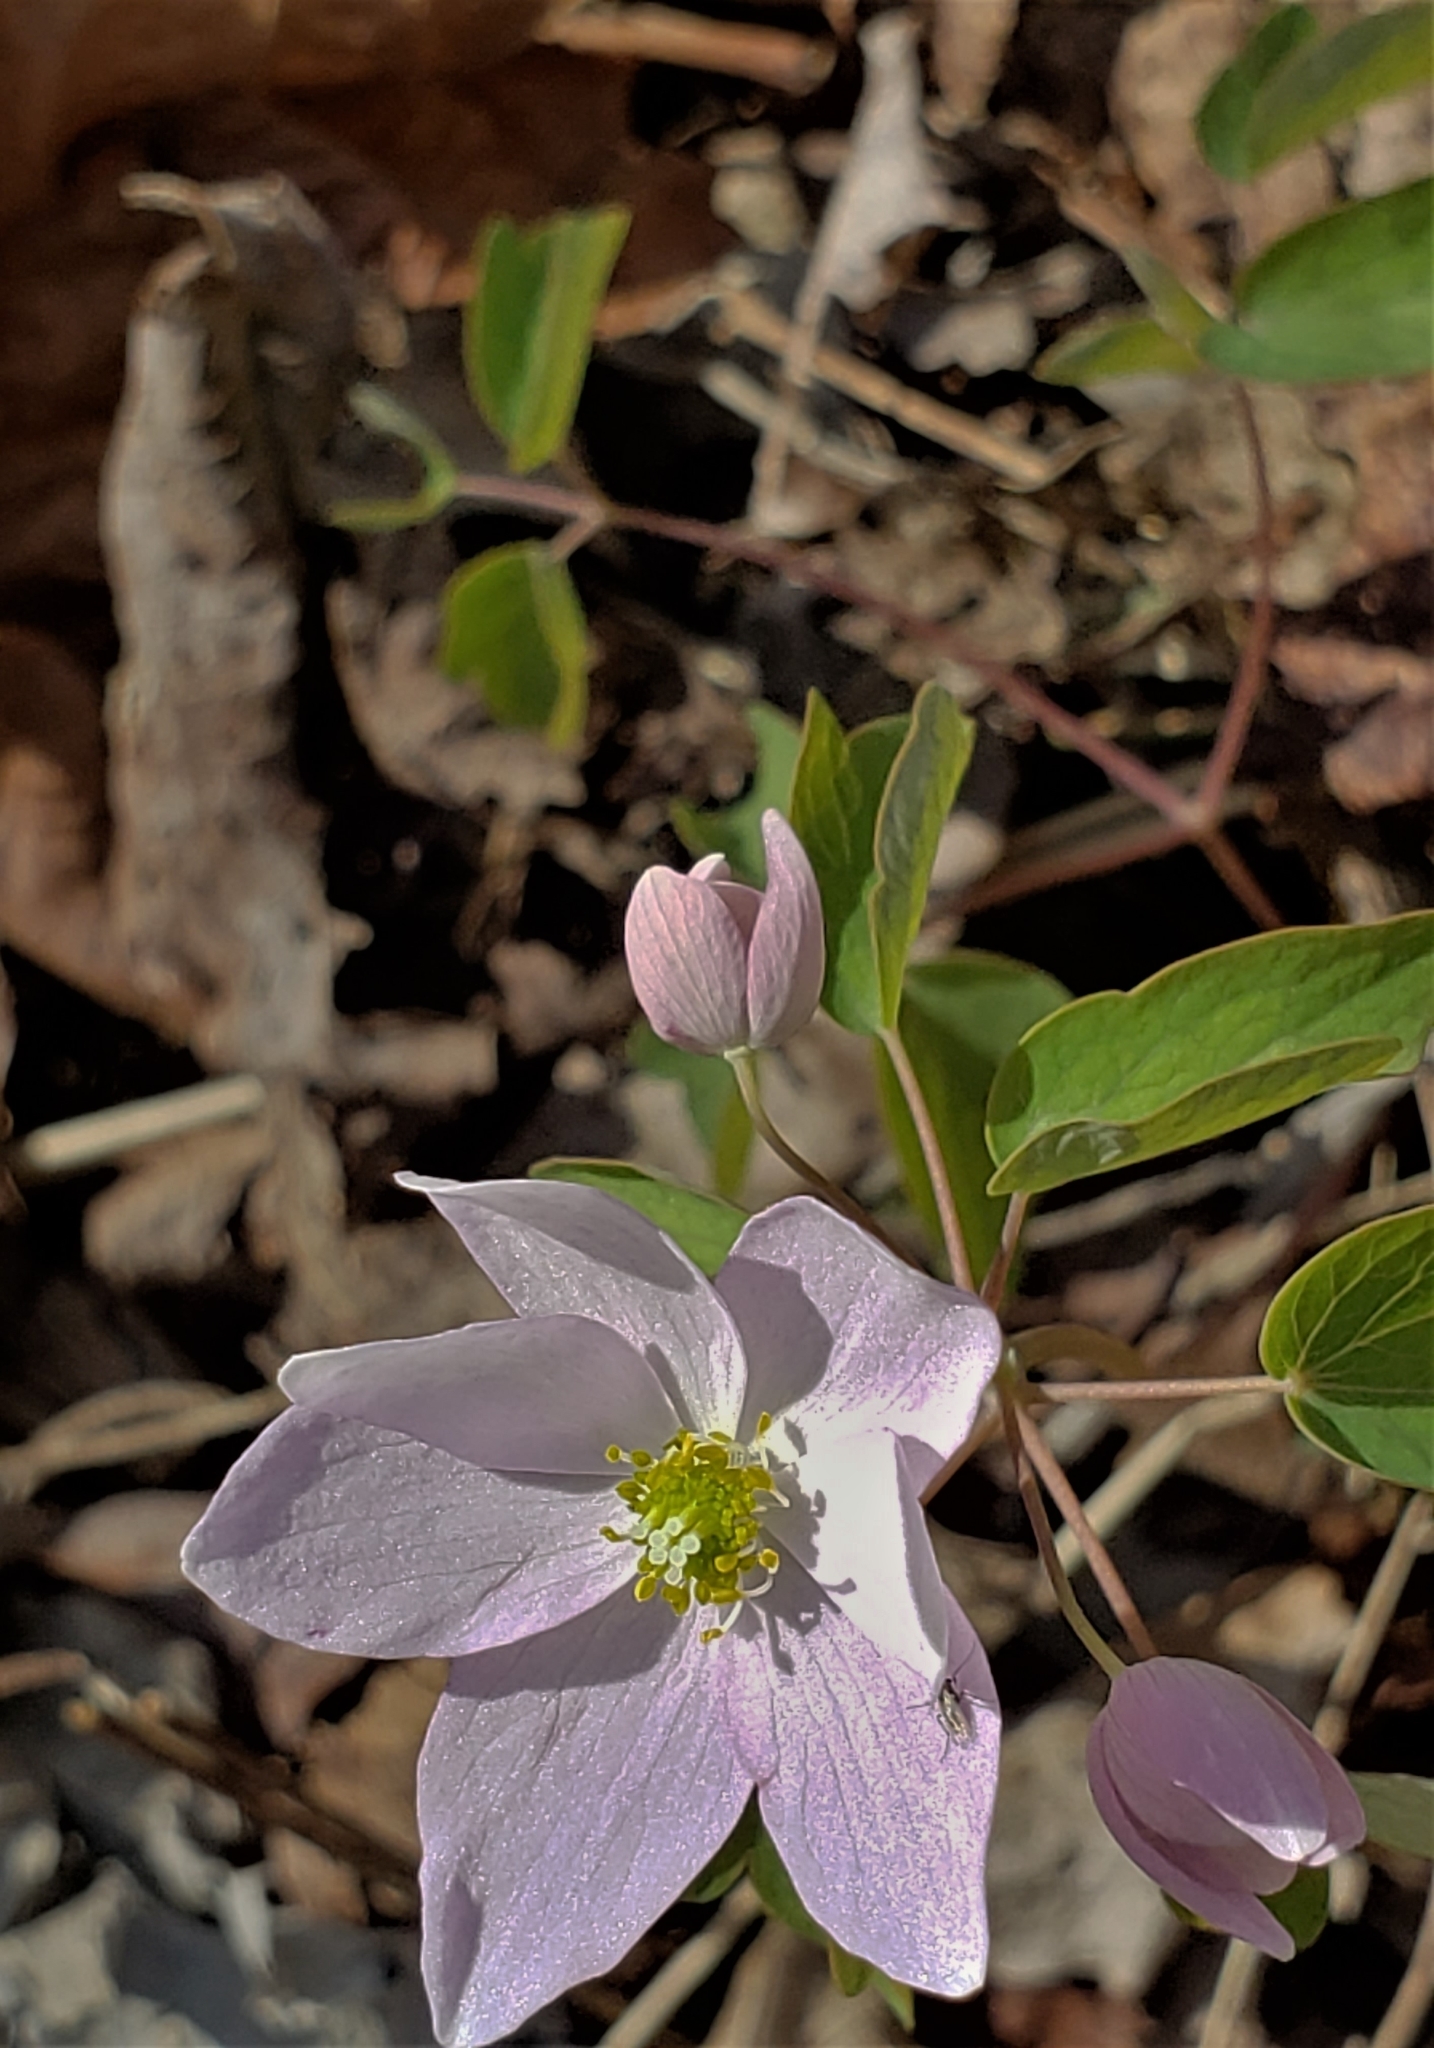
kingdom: Plantae
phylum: Tracheophyta
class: Magnoliopsida
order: Ranunculales
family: Ranunculaceae
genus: Thalictrum
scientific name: Thalictrum thalictroides
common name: Rue-anemone
